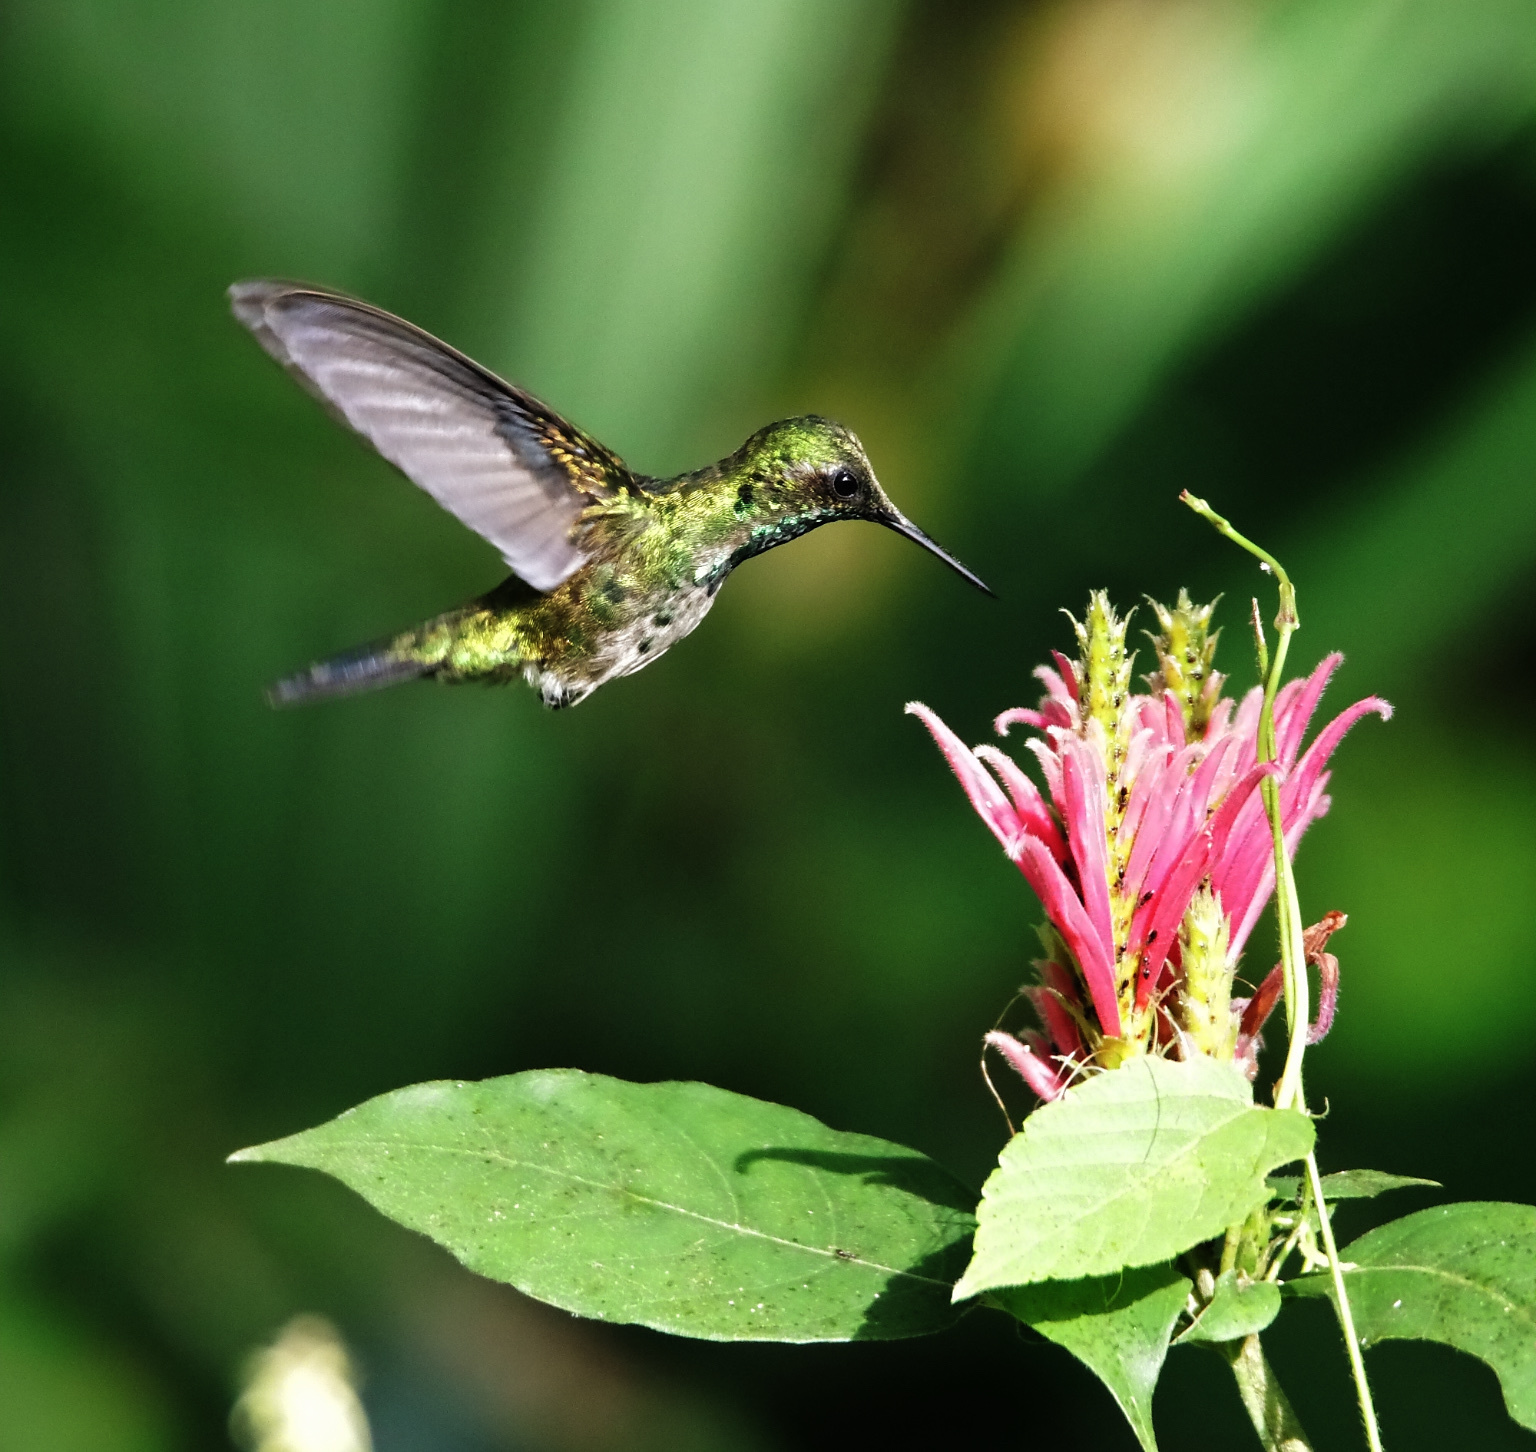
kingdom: Animalia
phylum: Chordata
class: Aves
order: Apodiformes
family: Trochilidae
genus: Chlorostilbon
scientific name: Chlorostilbon assimilis
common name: Garden emerald
